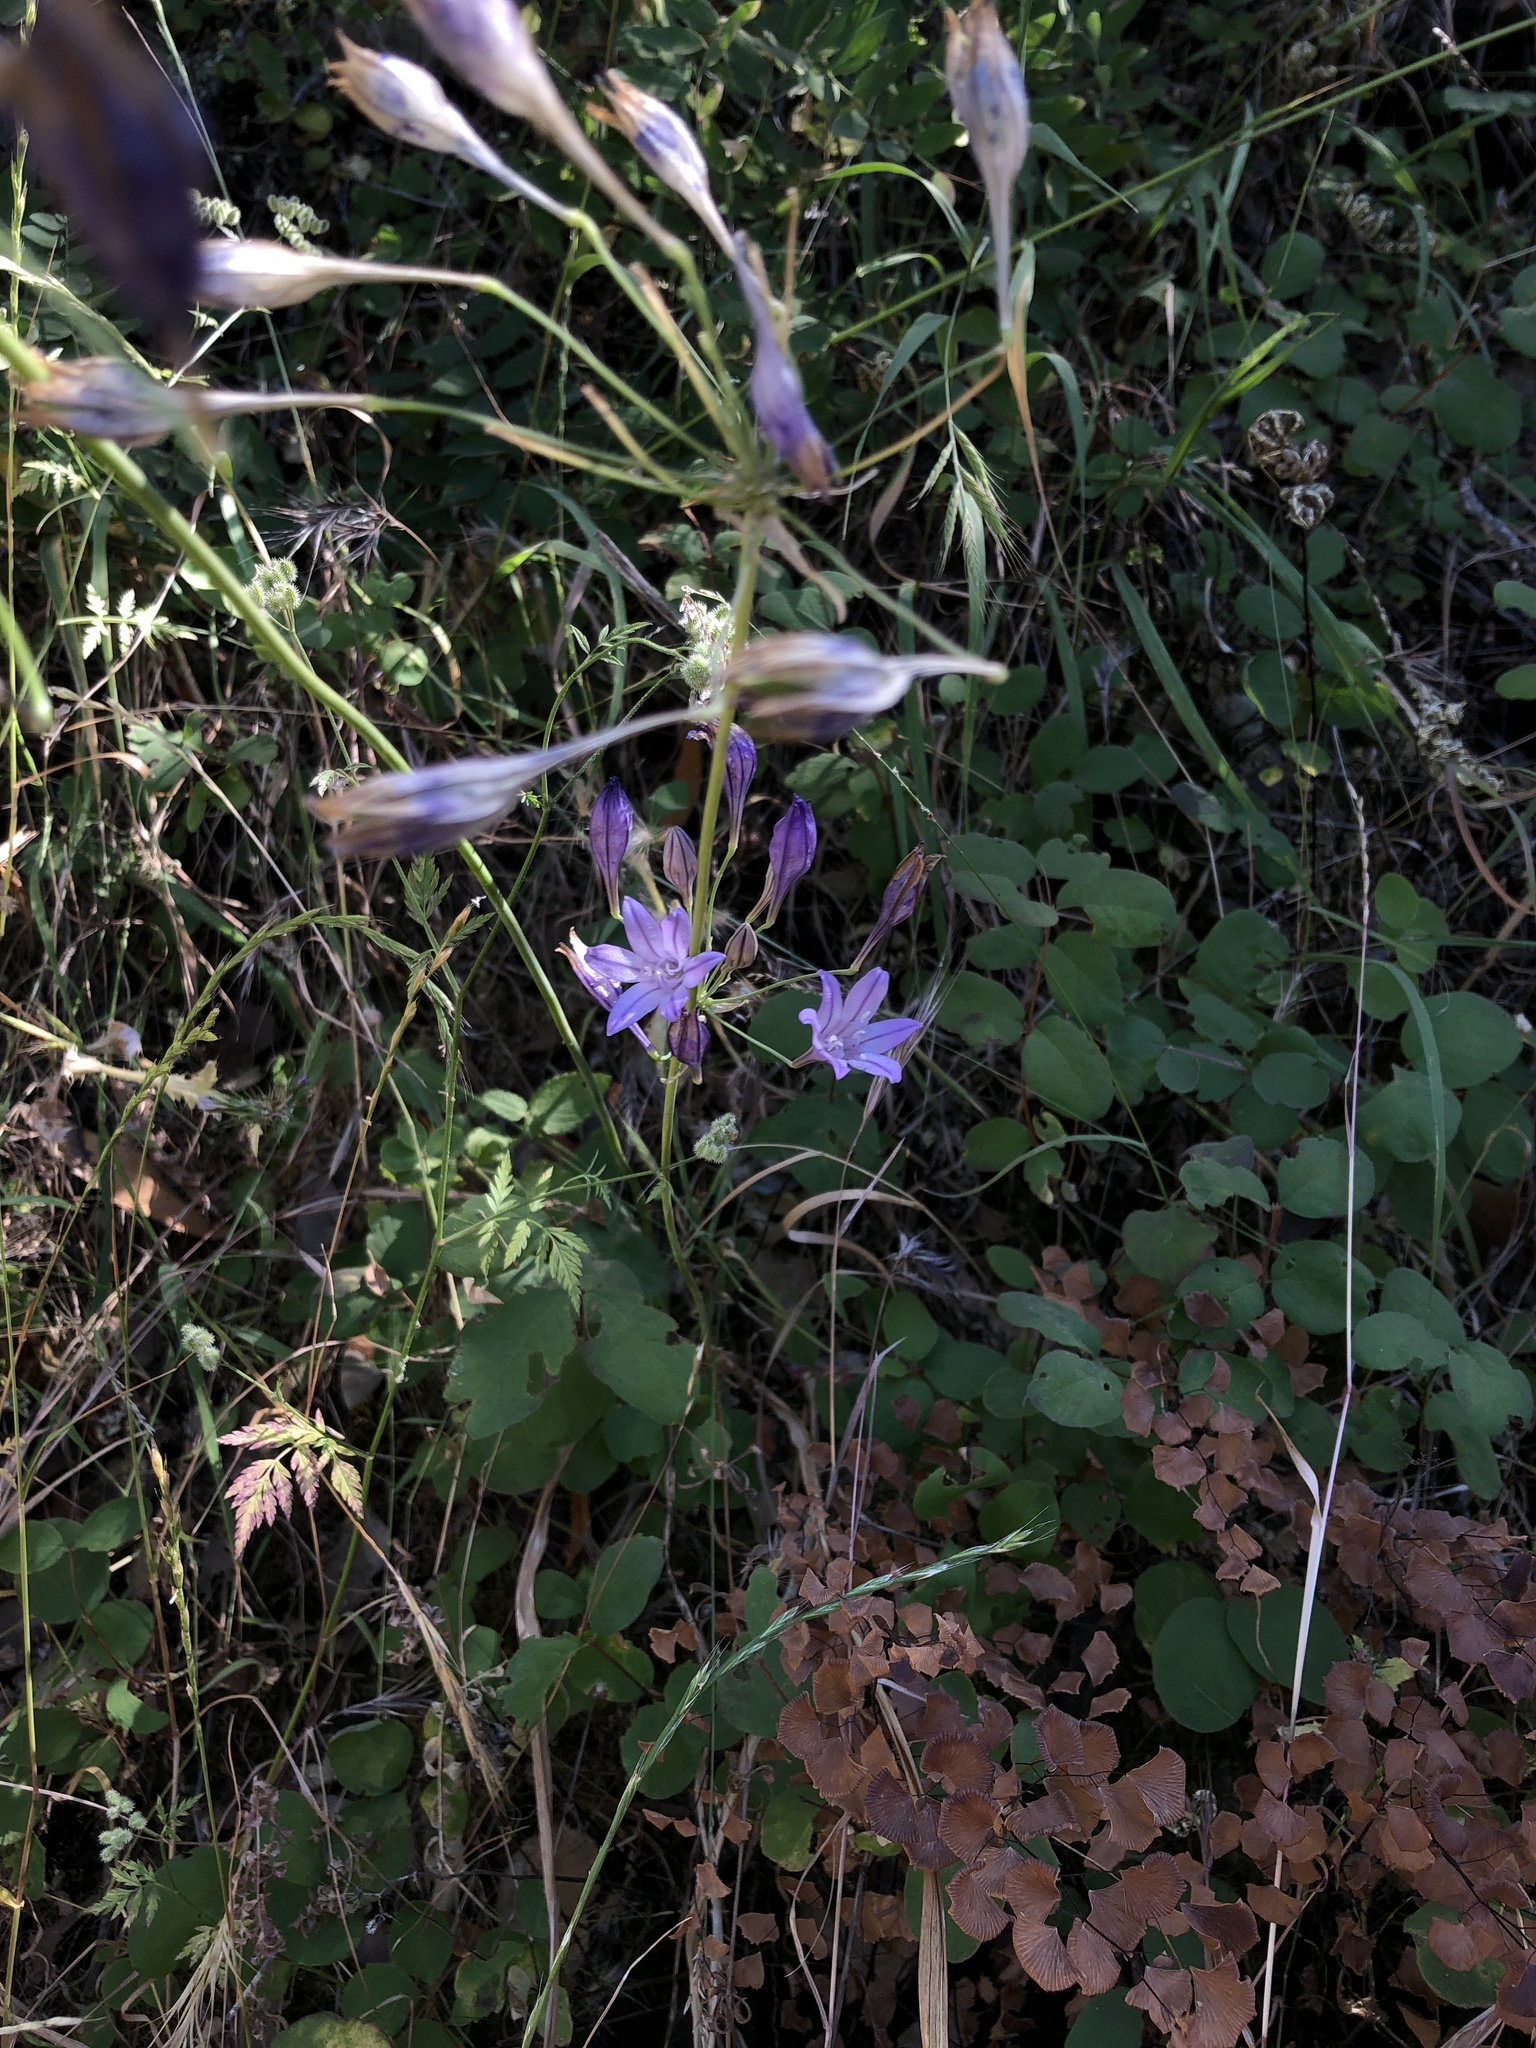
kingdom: Plantae
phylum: Tracheophyta
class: Liliopsida
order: Asparagales
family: Asparagaceae
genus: Triteleia
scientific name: Triteleia laxa
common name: Triplet-lily
